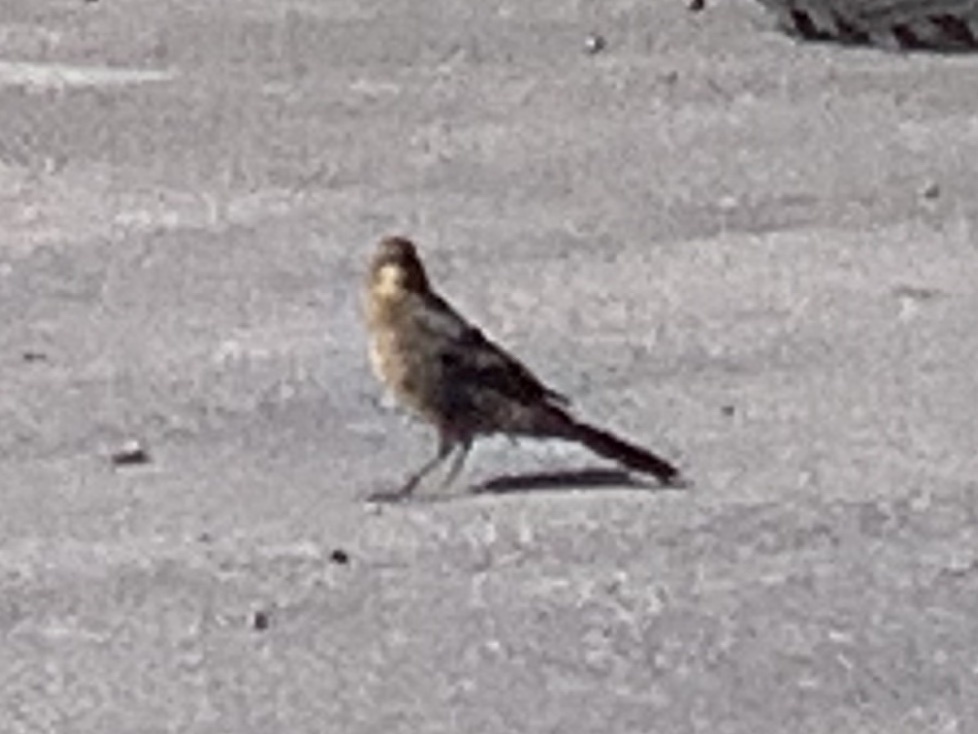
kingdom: Animalia
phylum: Chordata
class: Aves
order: Passeriformes
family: Icteridae
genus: Quiscalus
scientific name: Quiscalus mexicanus
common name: Great-tailed grackle
